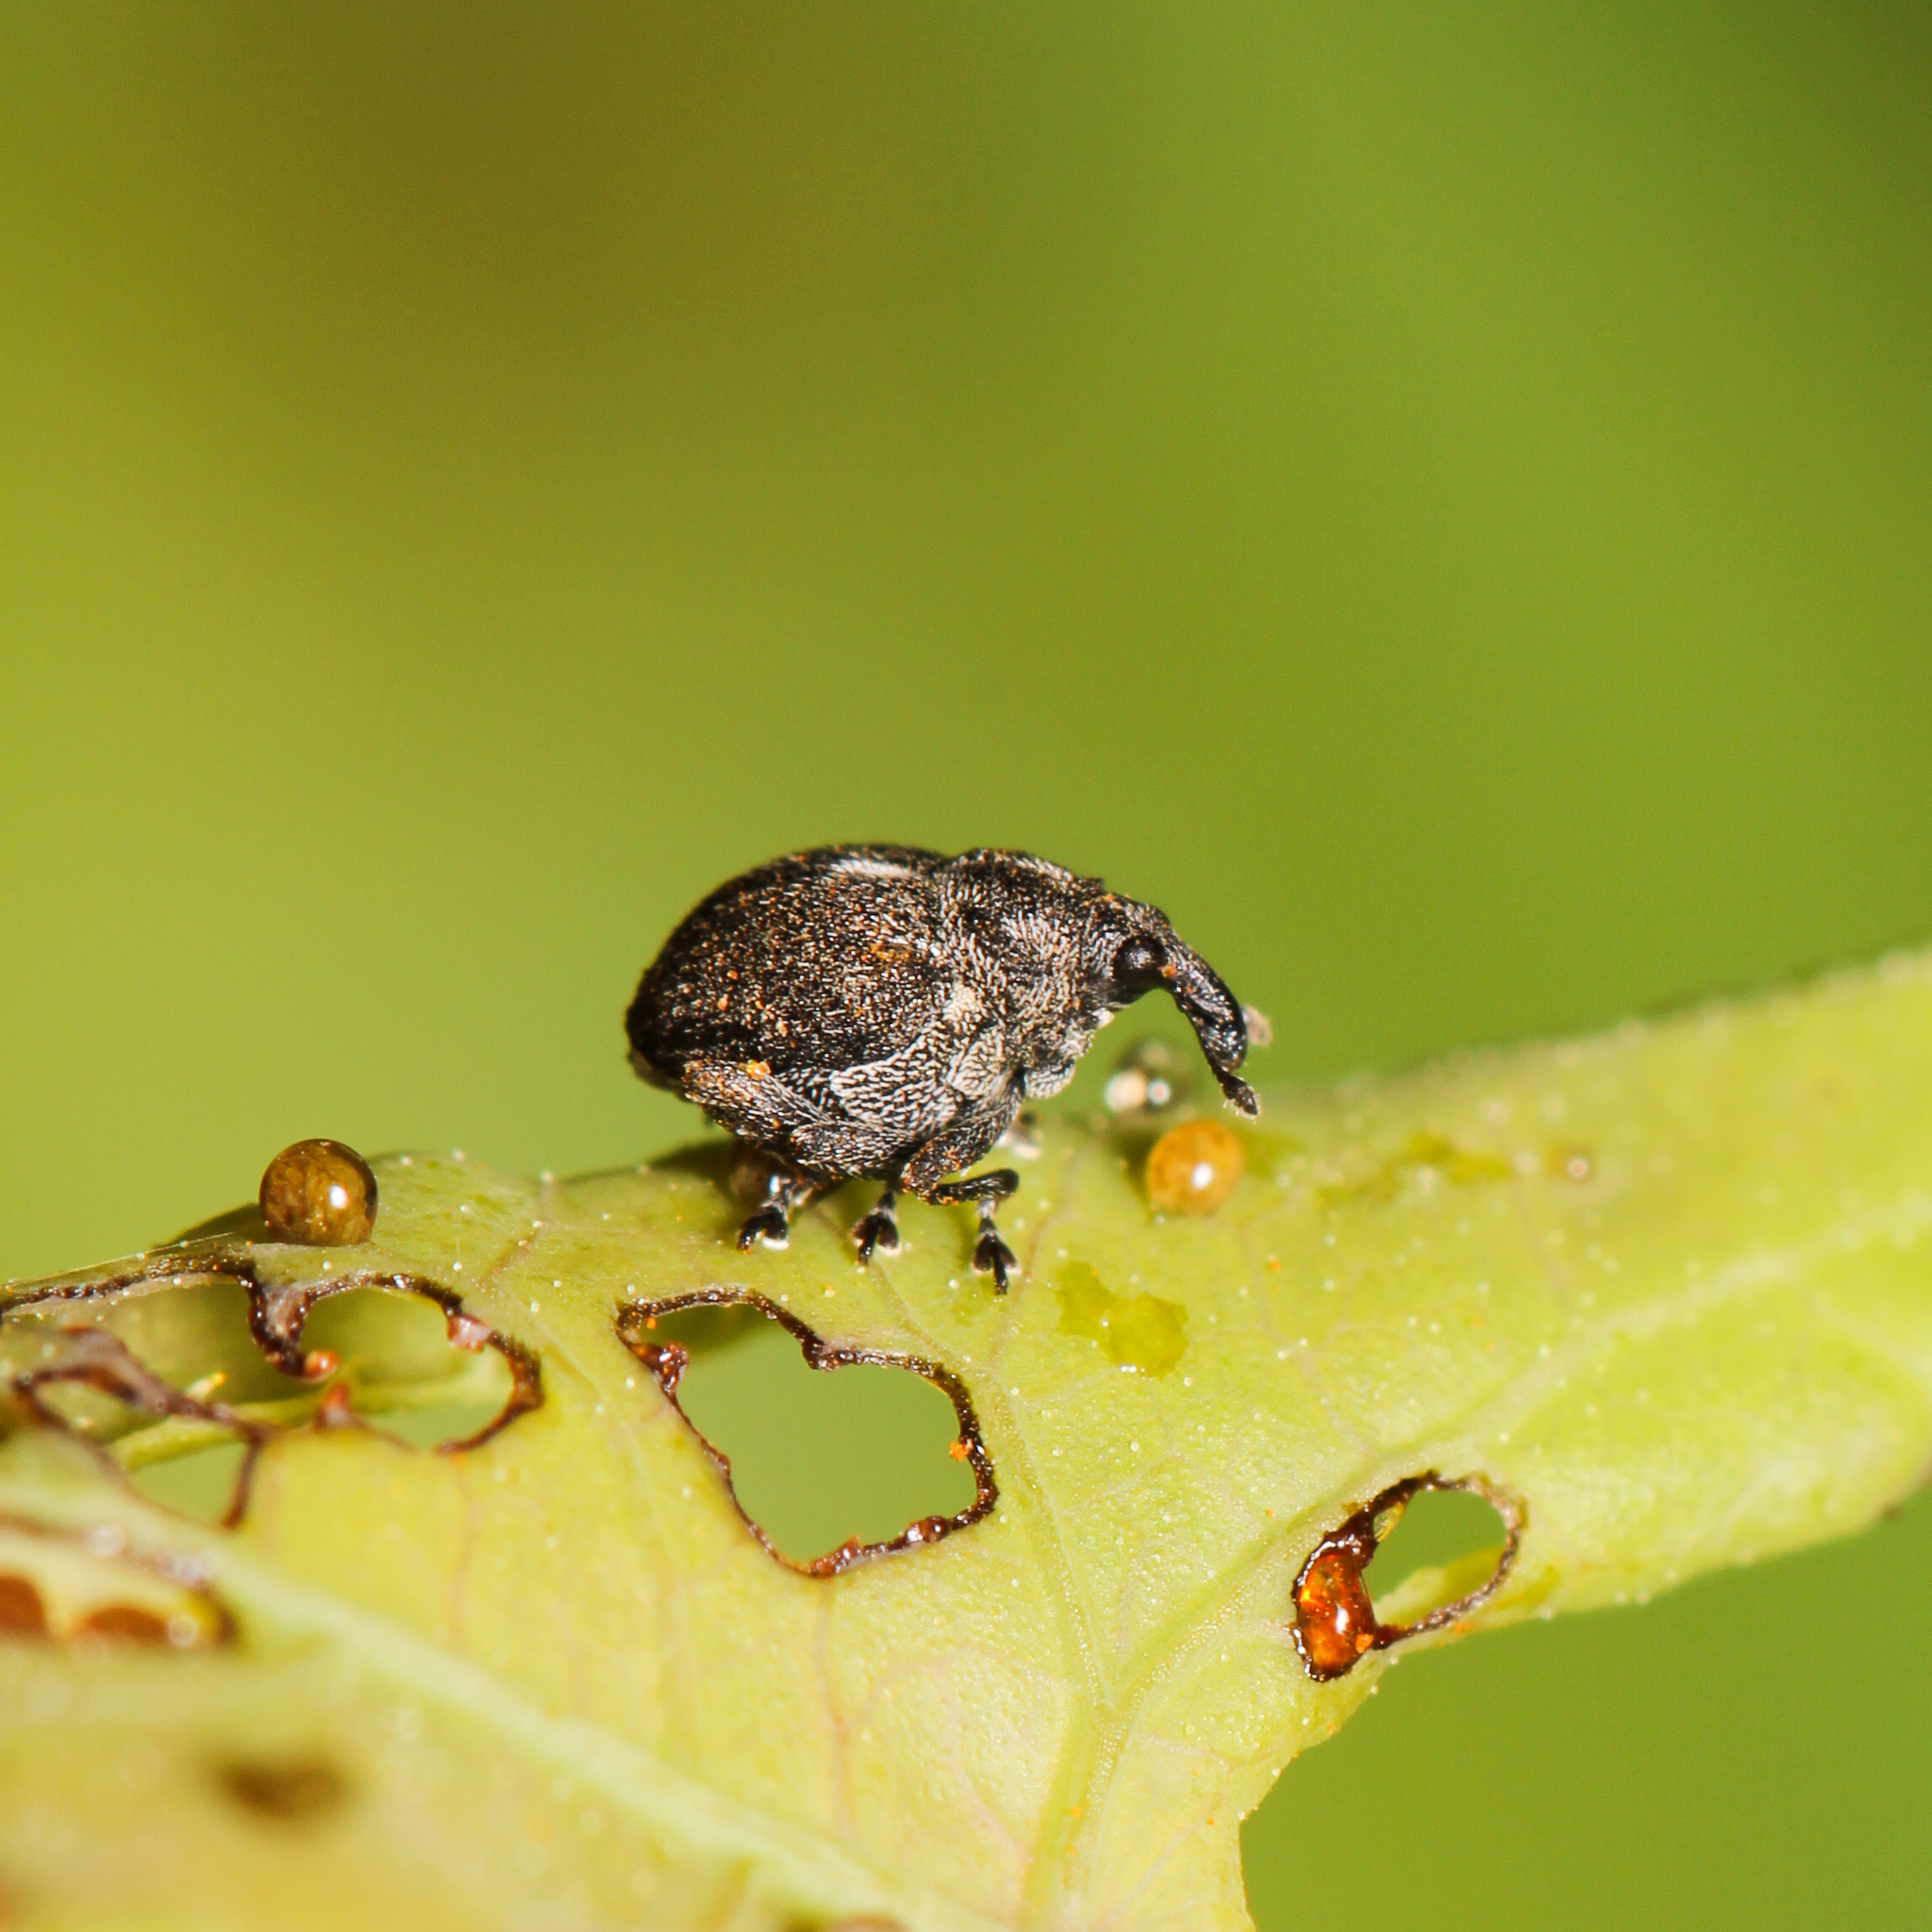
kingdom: Animalia
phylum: Arthropoda
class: Insecta
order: Coleoptera
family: Curculionidae
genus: Rhinoncomimus
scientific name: Rhinoncomimus latipes
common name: Chinese weevil
